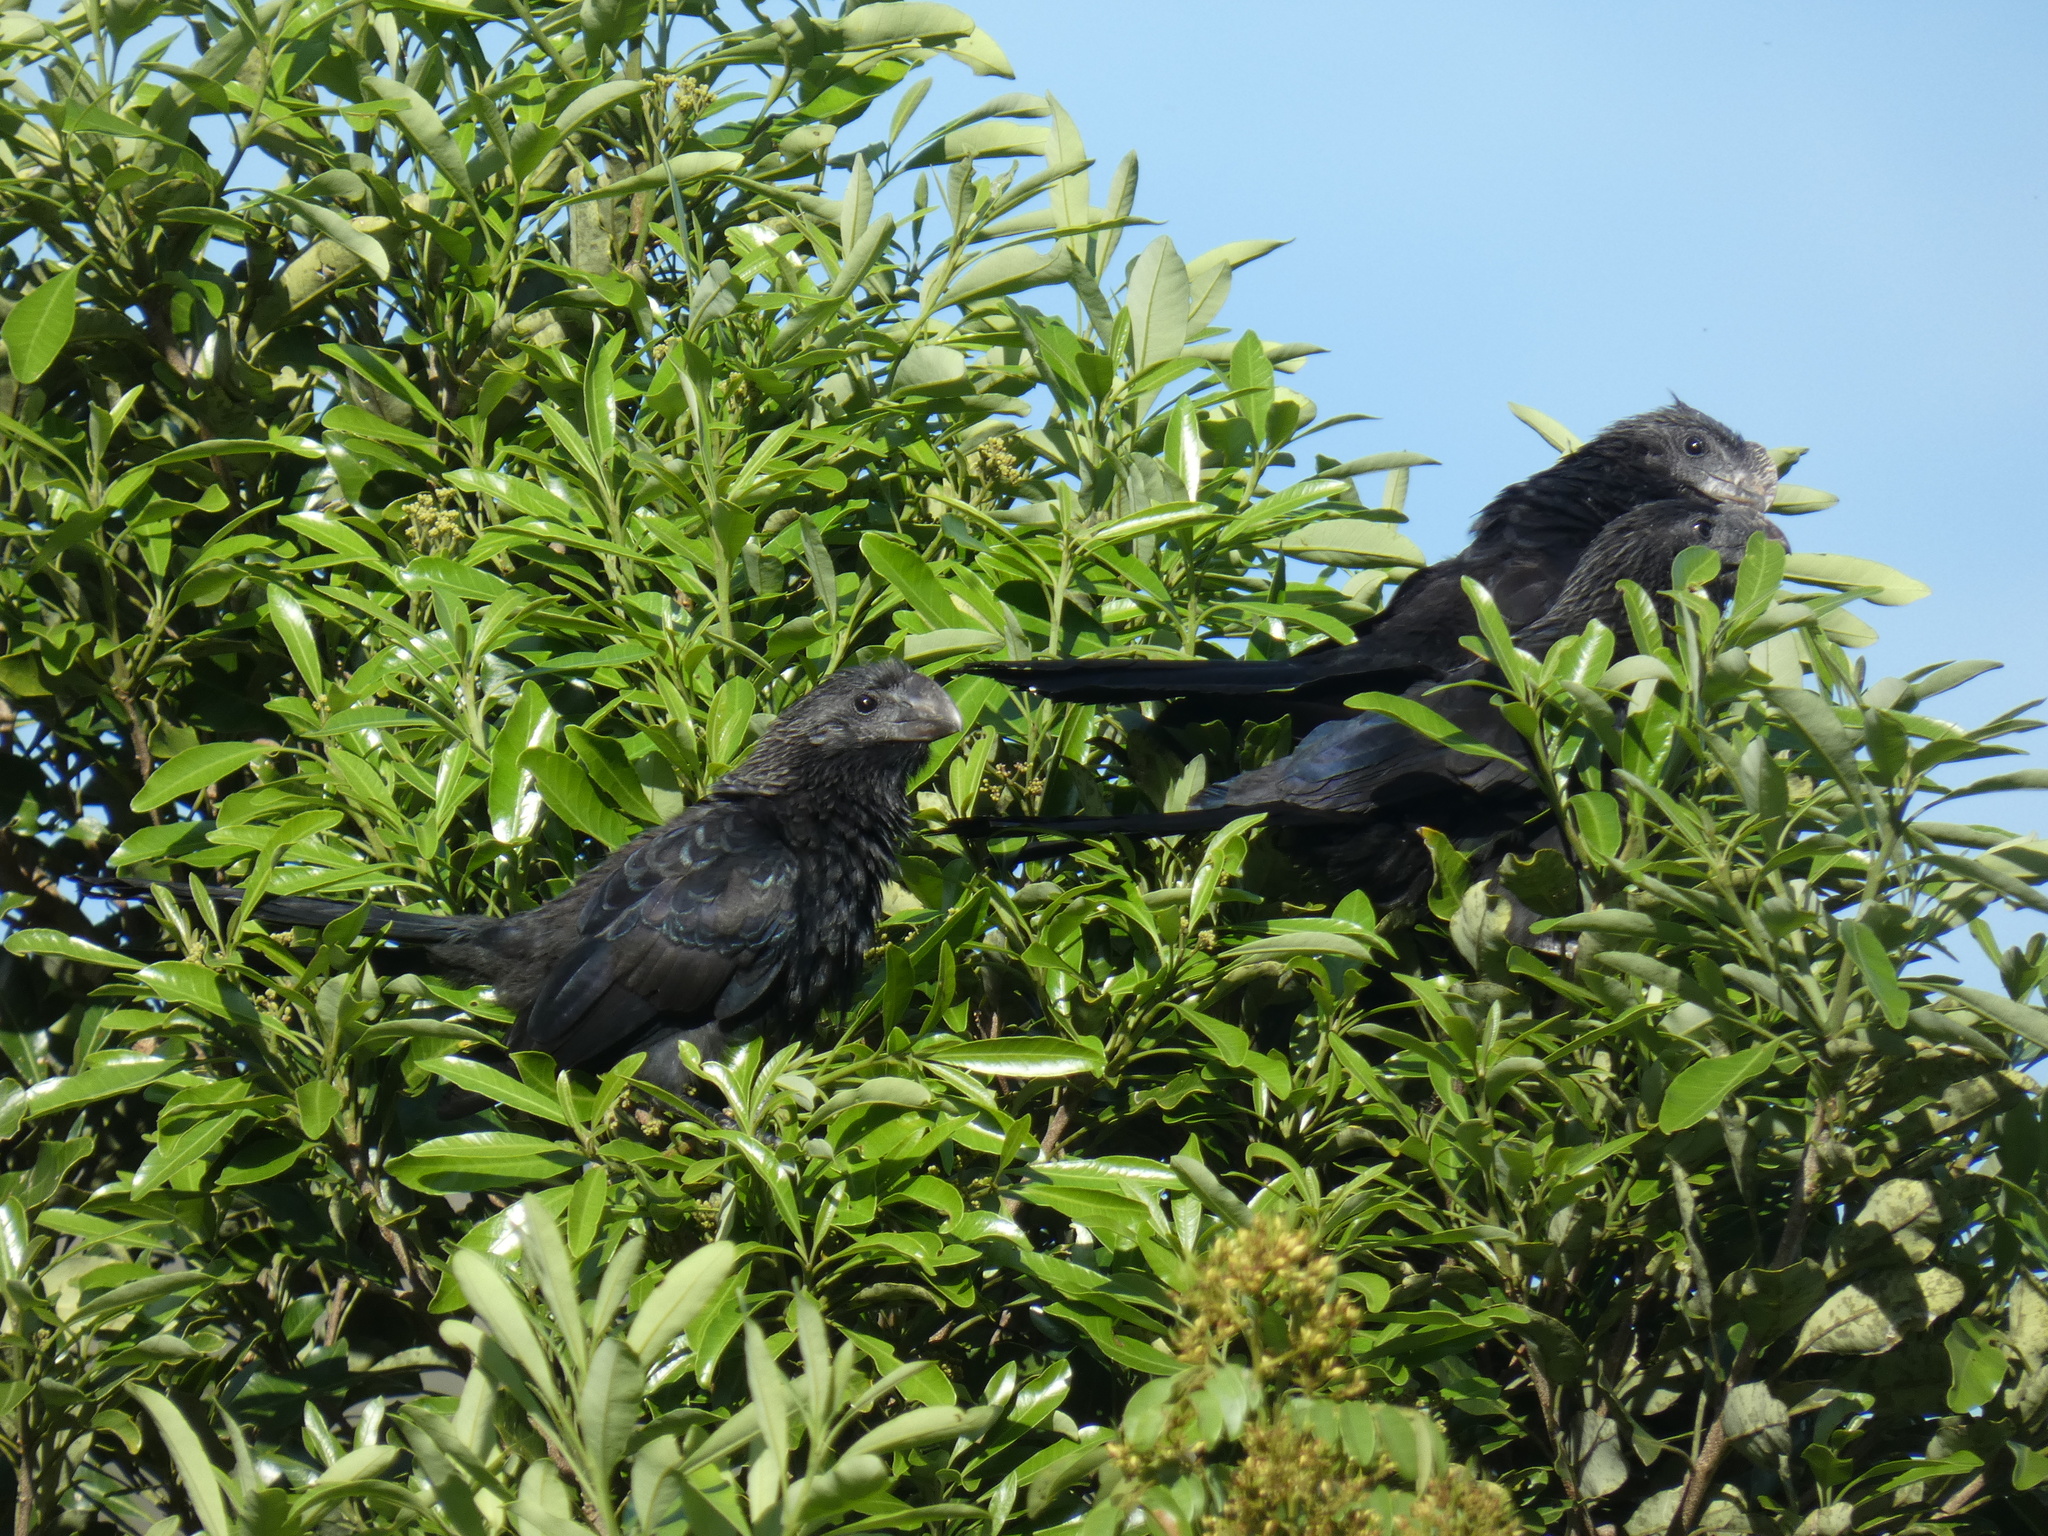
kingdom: Animalia
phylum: Chordata
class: Aves
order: Cuculiformes
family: Cuculidae
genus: Crotophaga
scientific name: Crotophaga ani
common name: Smooth-billed ani
